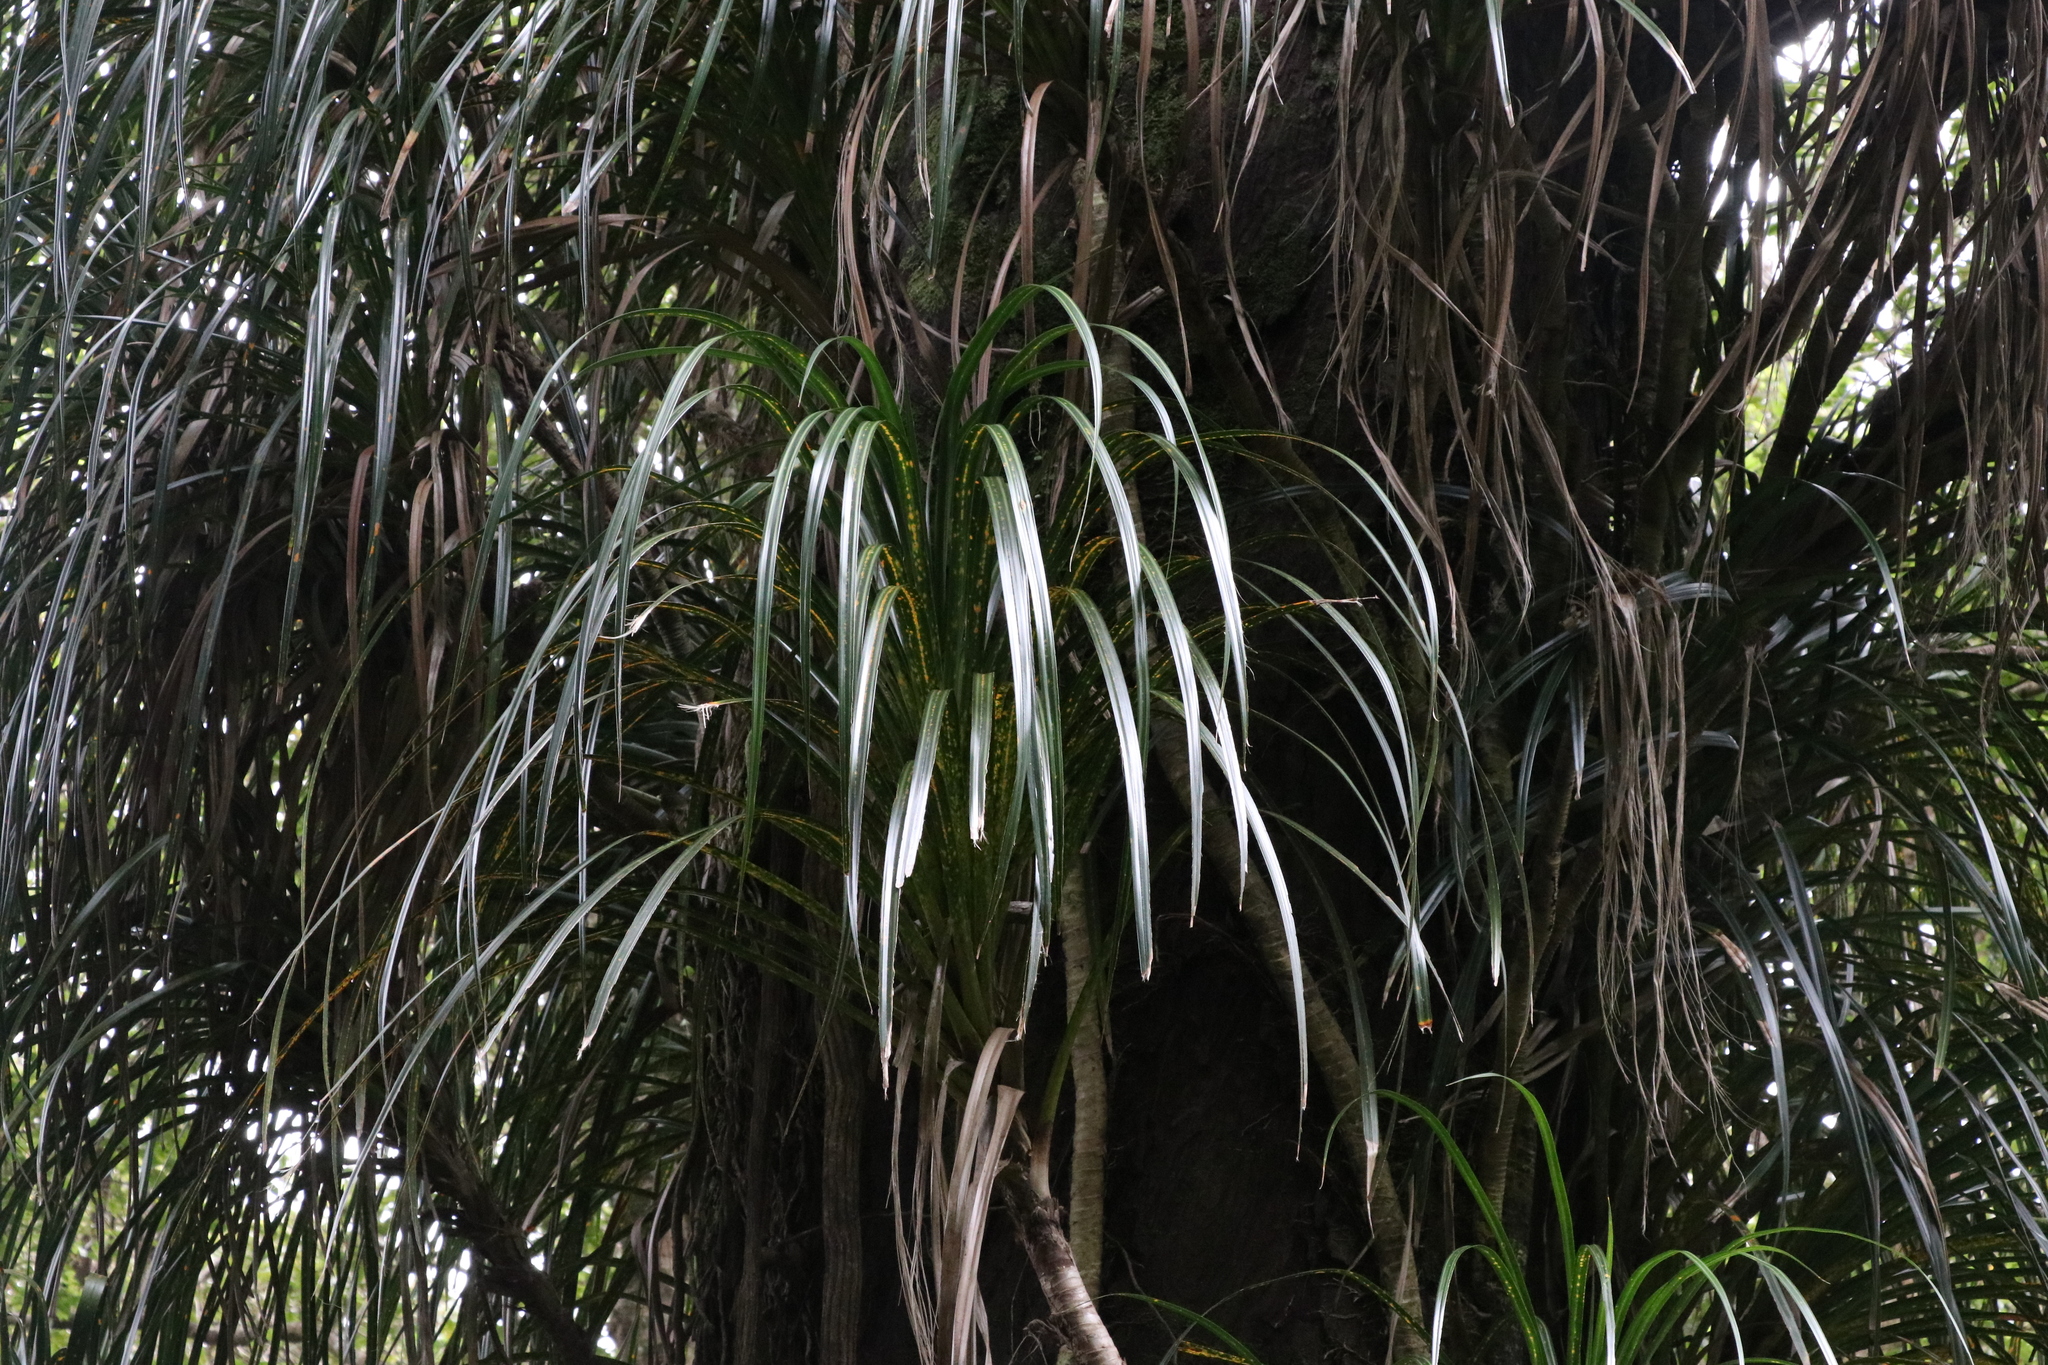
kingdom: Plantae
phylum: Tracheophyta
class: Liliopsida
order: Pandanales
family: Pandanaceae
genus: Freycinetia
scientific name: Freycinetia banksii
